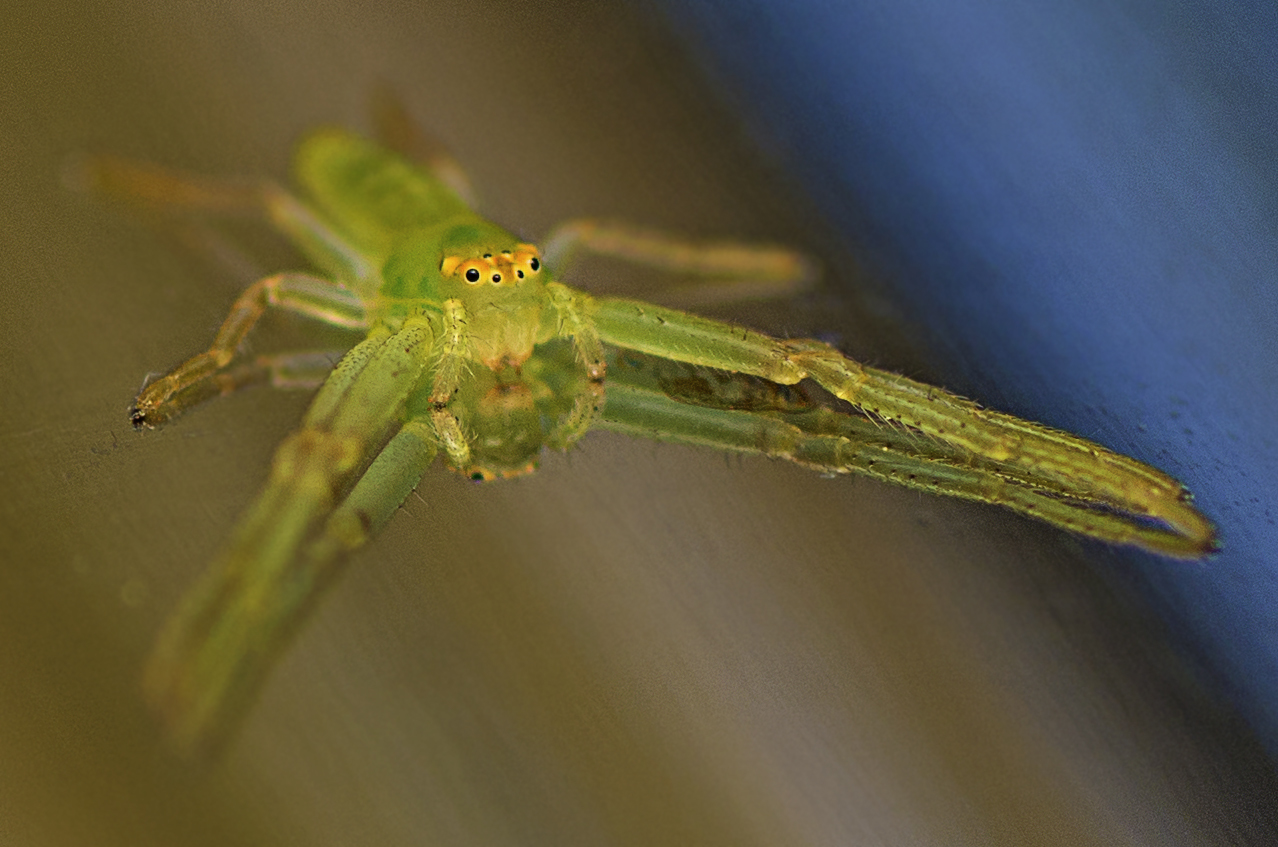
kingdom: Animalia
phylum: Arthropoda
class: Arachnida
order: Araneae
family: Thomisidae
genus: Cetratus
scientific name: Cetratus rubropunctatus
